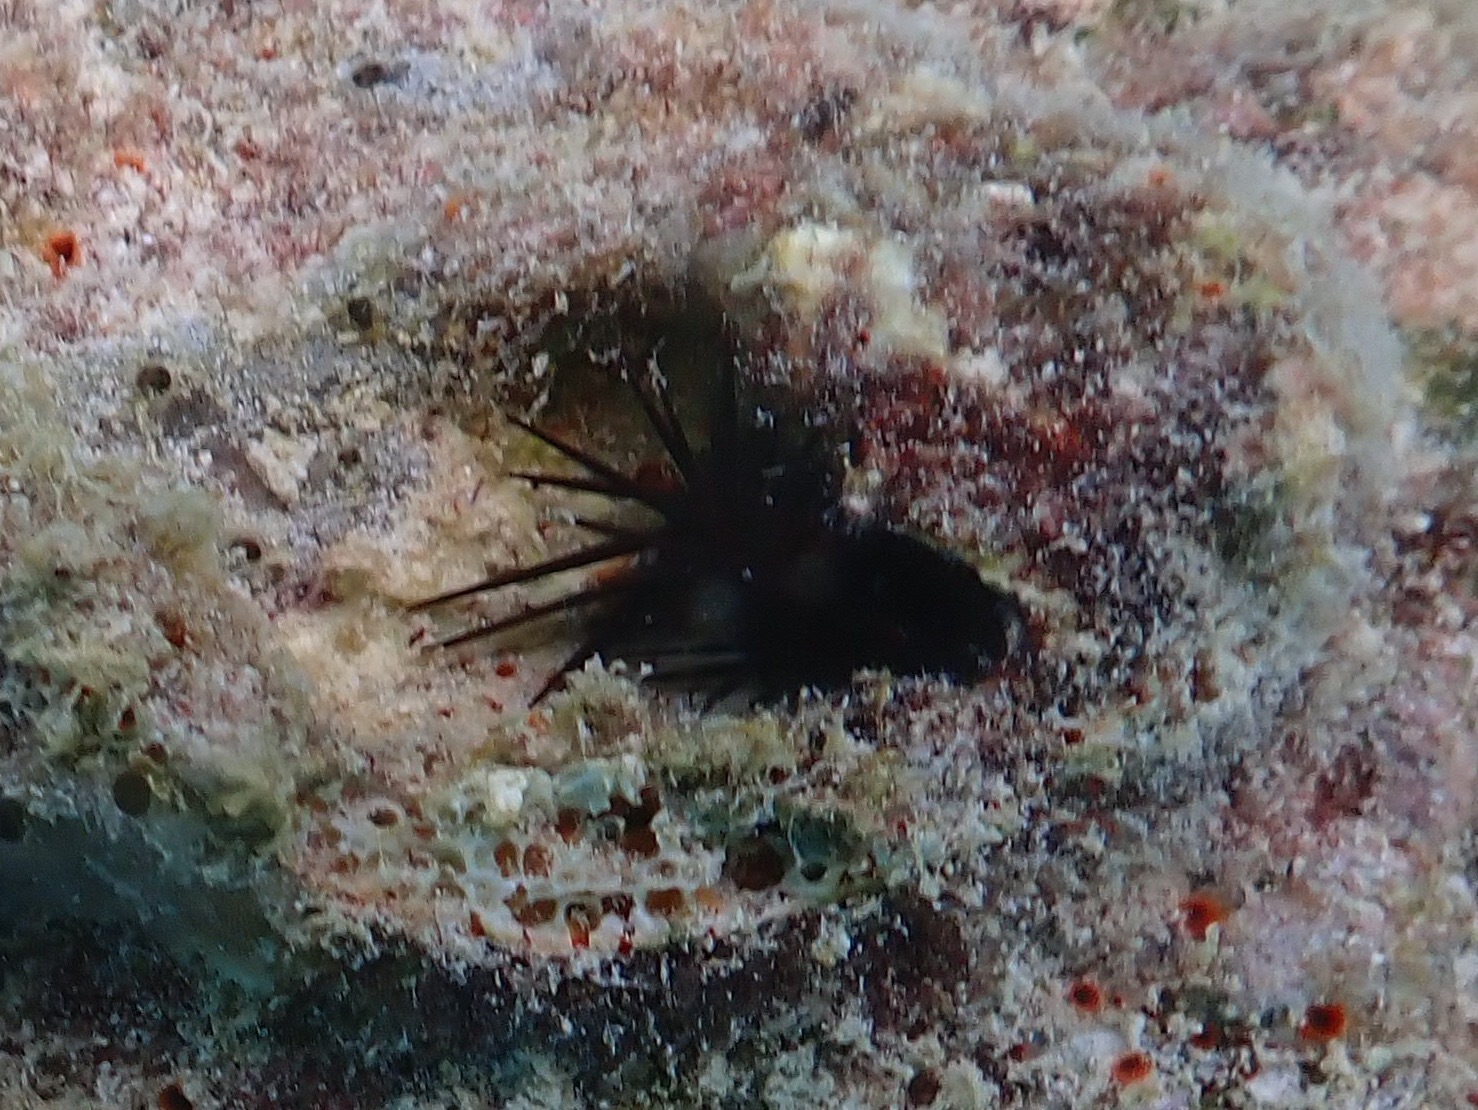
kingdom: Animalia
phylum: Echinodermata
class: Echinoidea
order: Camarodonta
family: Echinometridae
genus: Echinometra
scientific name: Echinometra lucunter
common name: Rock urchin
